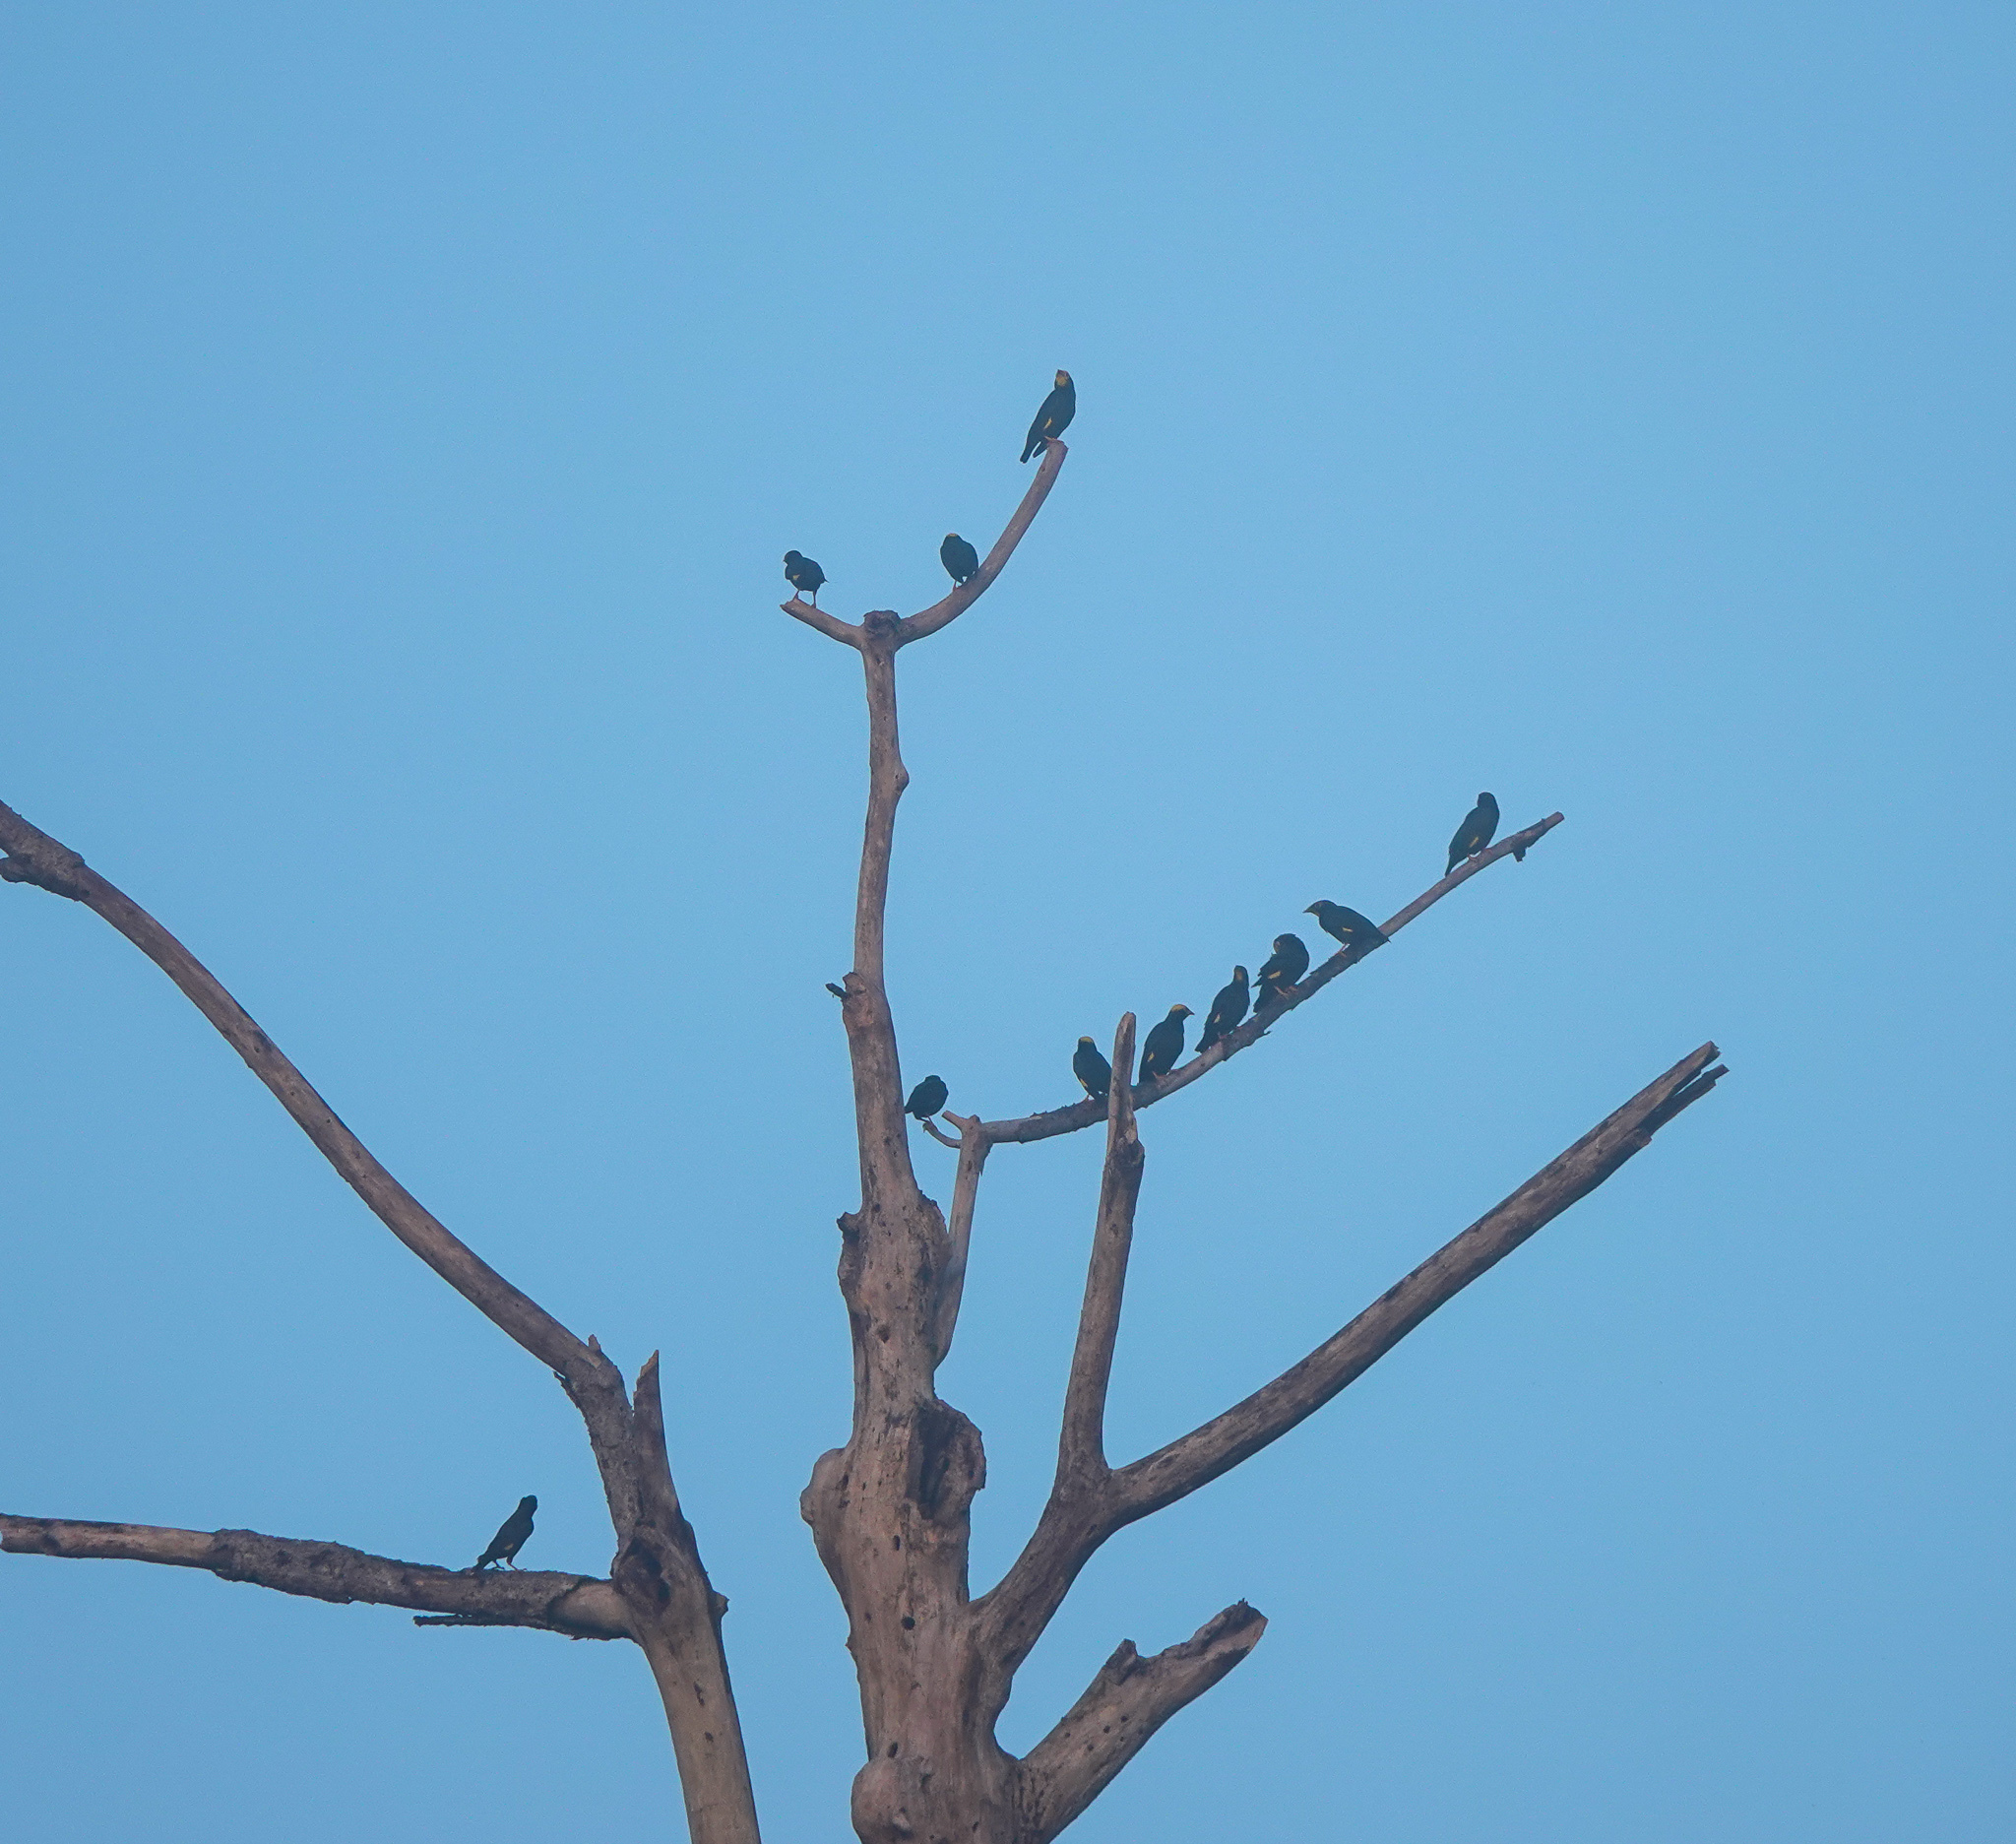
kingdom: Animalia
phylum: Chordata
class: Aves
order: Passeriformes
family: Sturnidae
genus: Ampeliceps
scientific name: Ampeliceps coronatus
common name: Golden-crested myna
